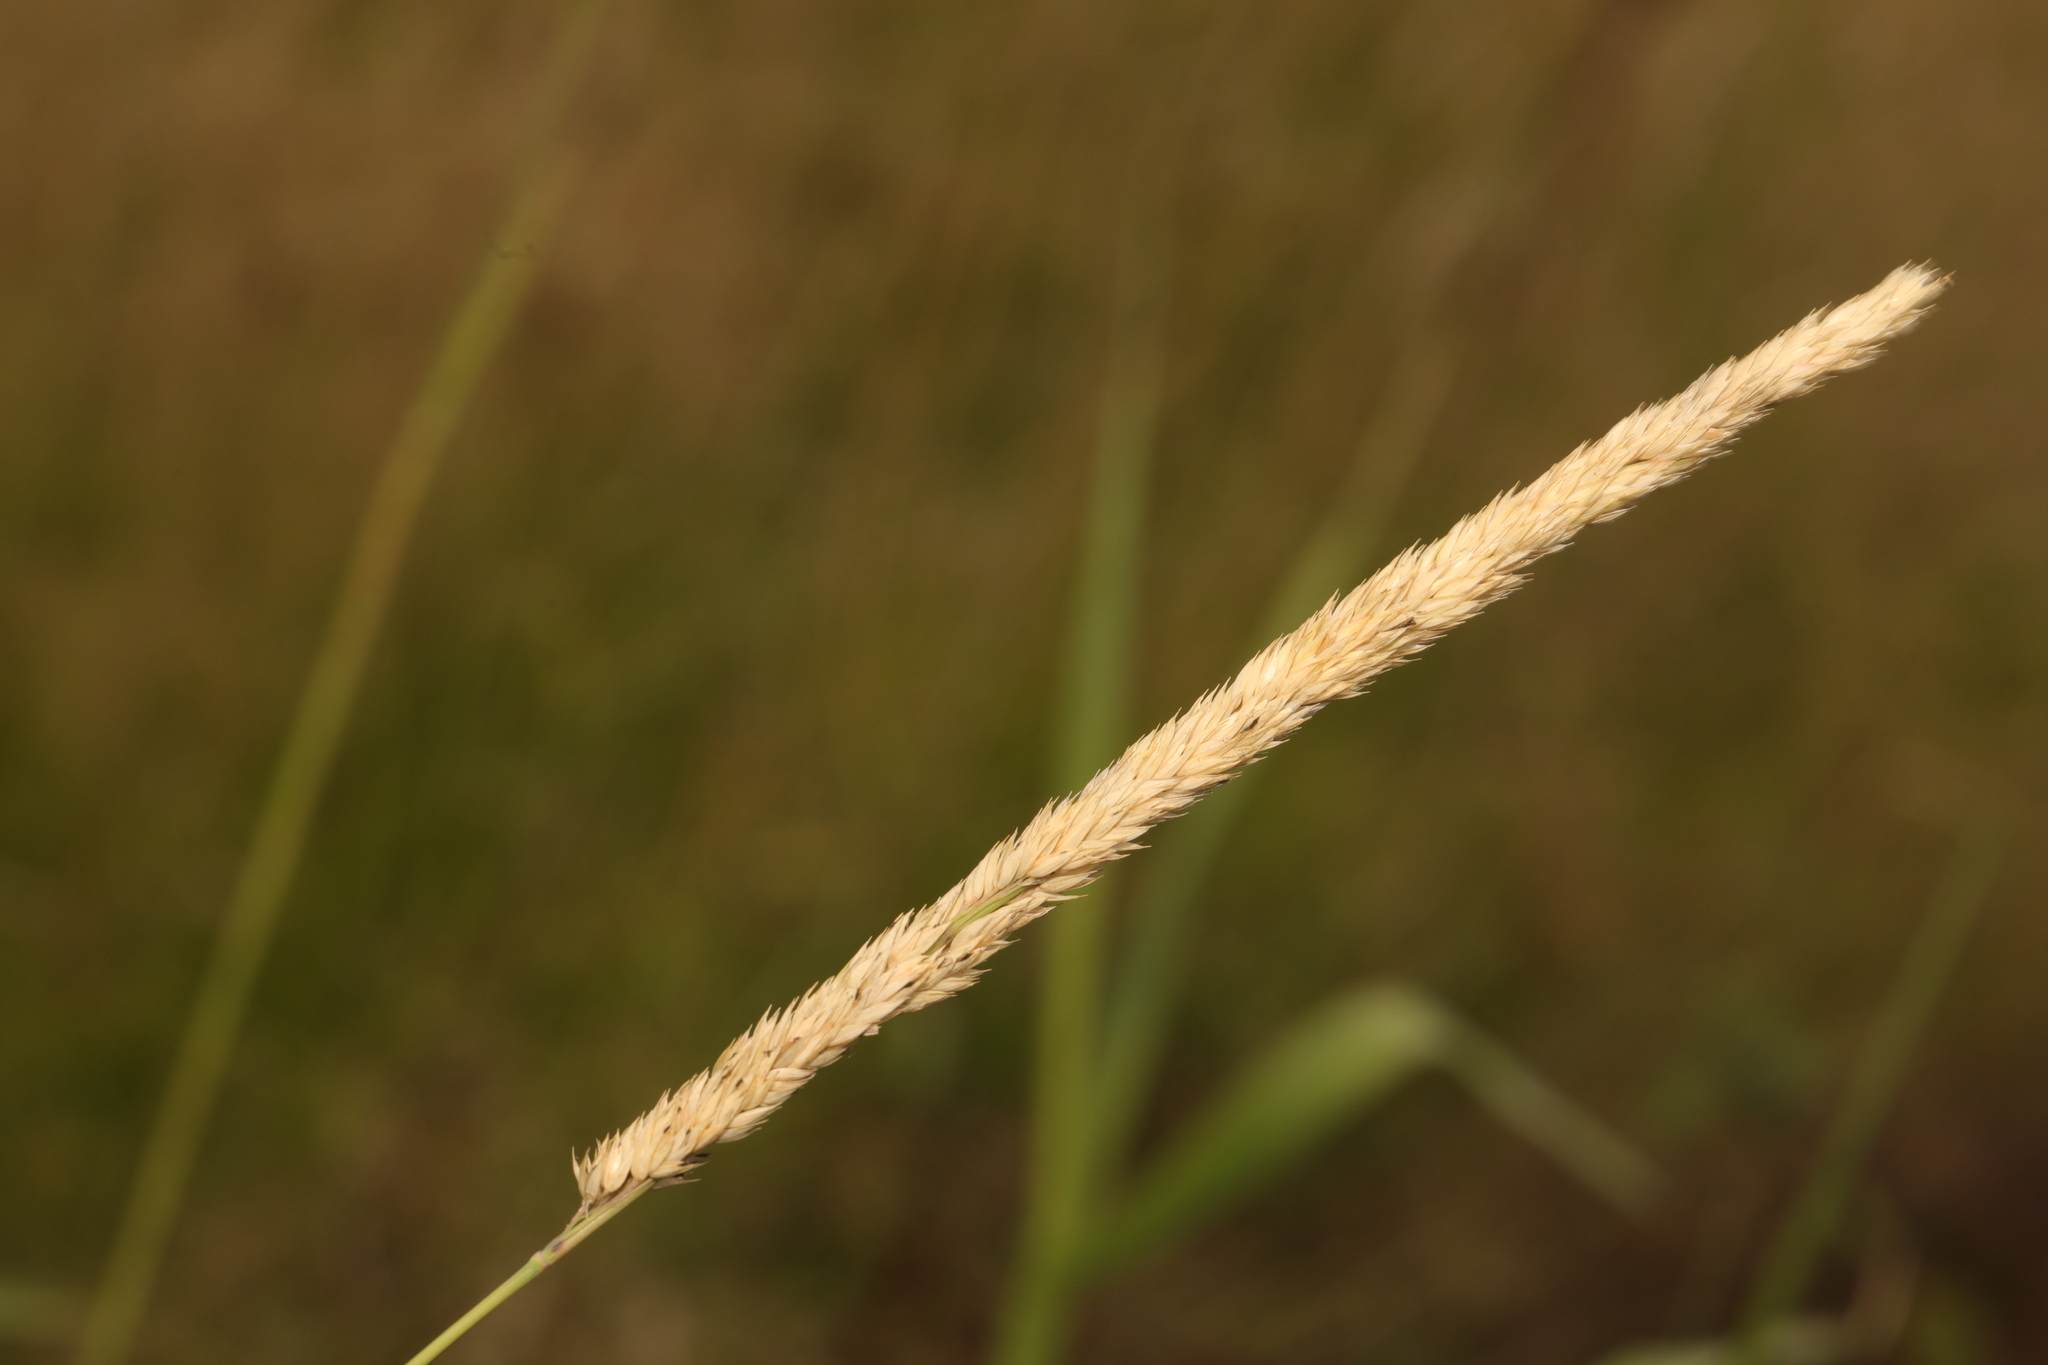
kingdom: Plantae
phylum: Tracheophyta
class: Liliopsida
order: Poales
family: Poaceae
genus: Phalaris
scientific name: Phalaris arundinacea
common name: Reed canary-grass
